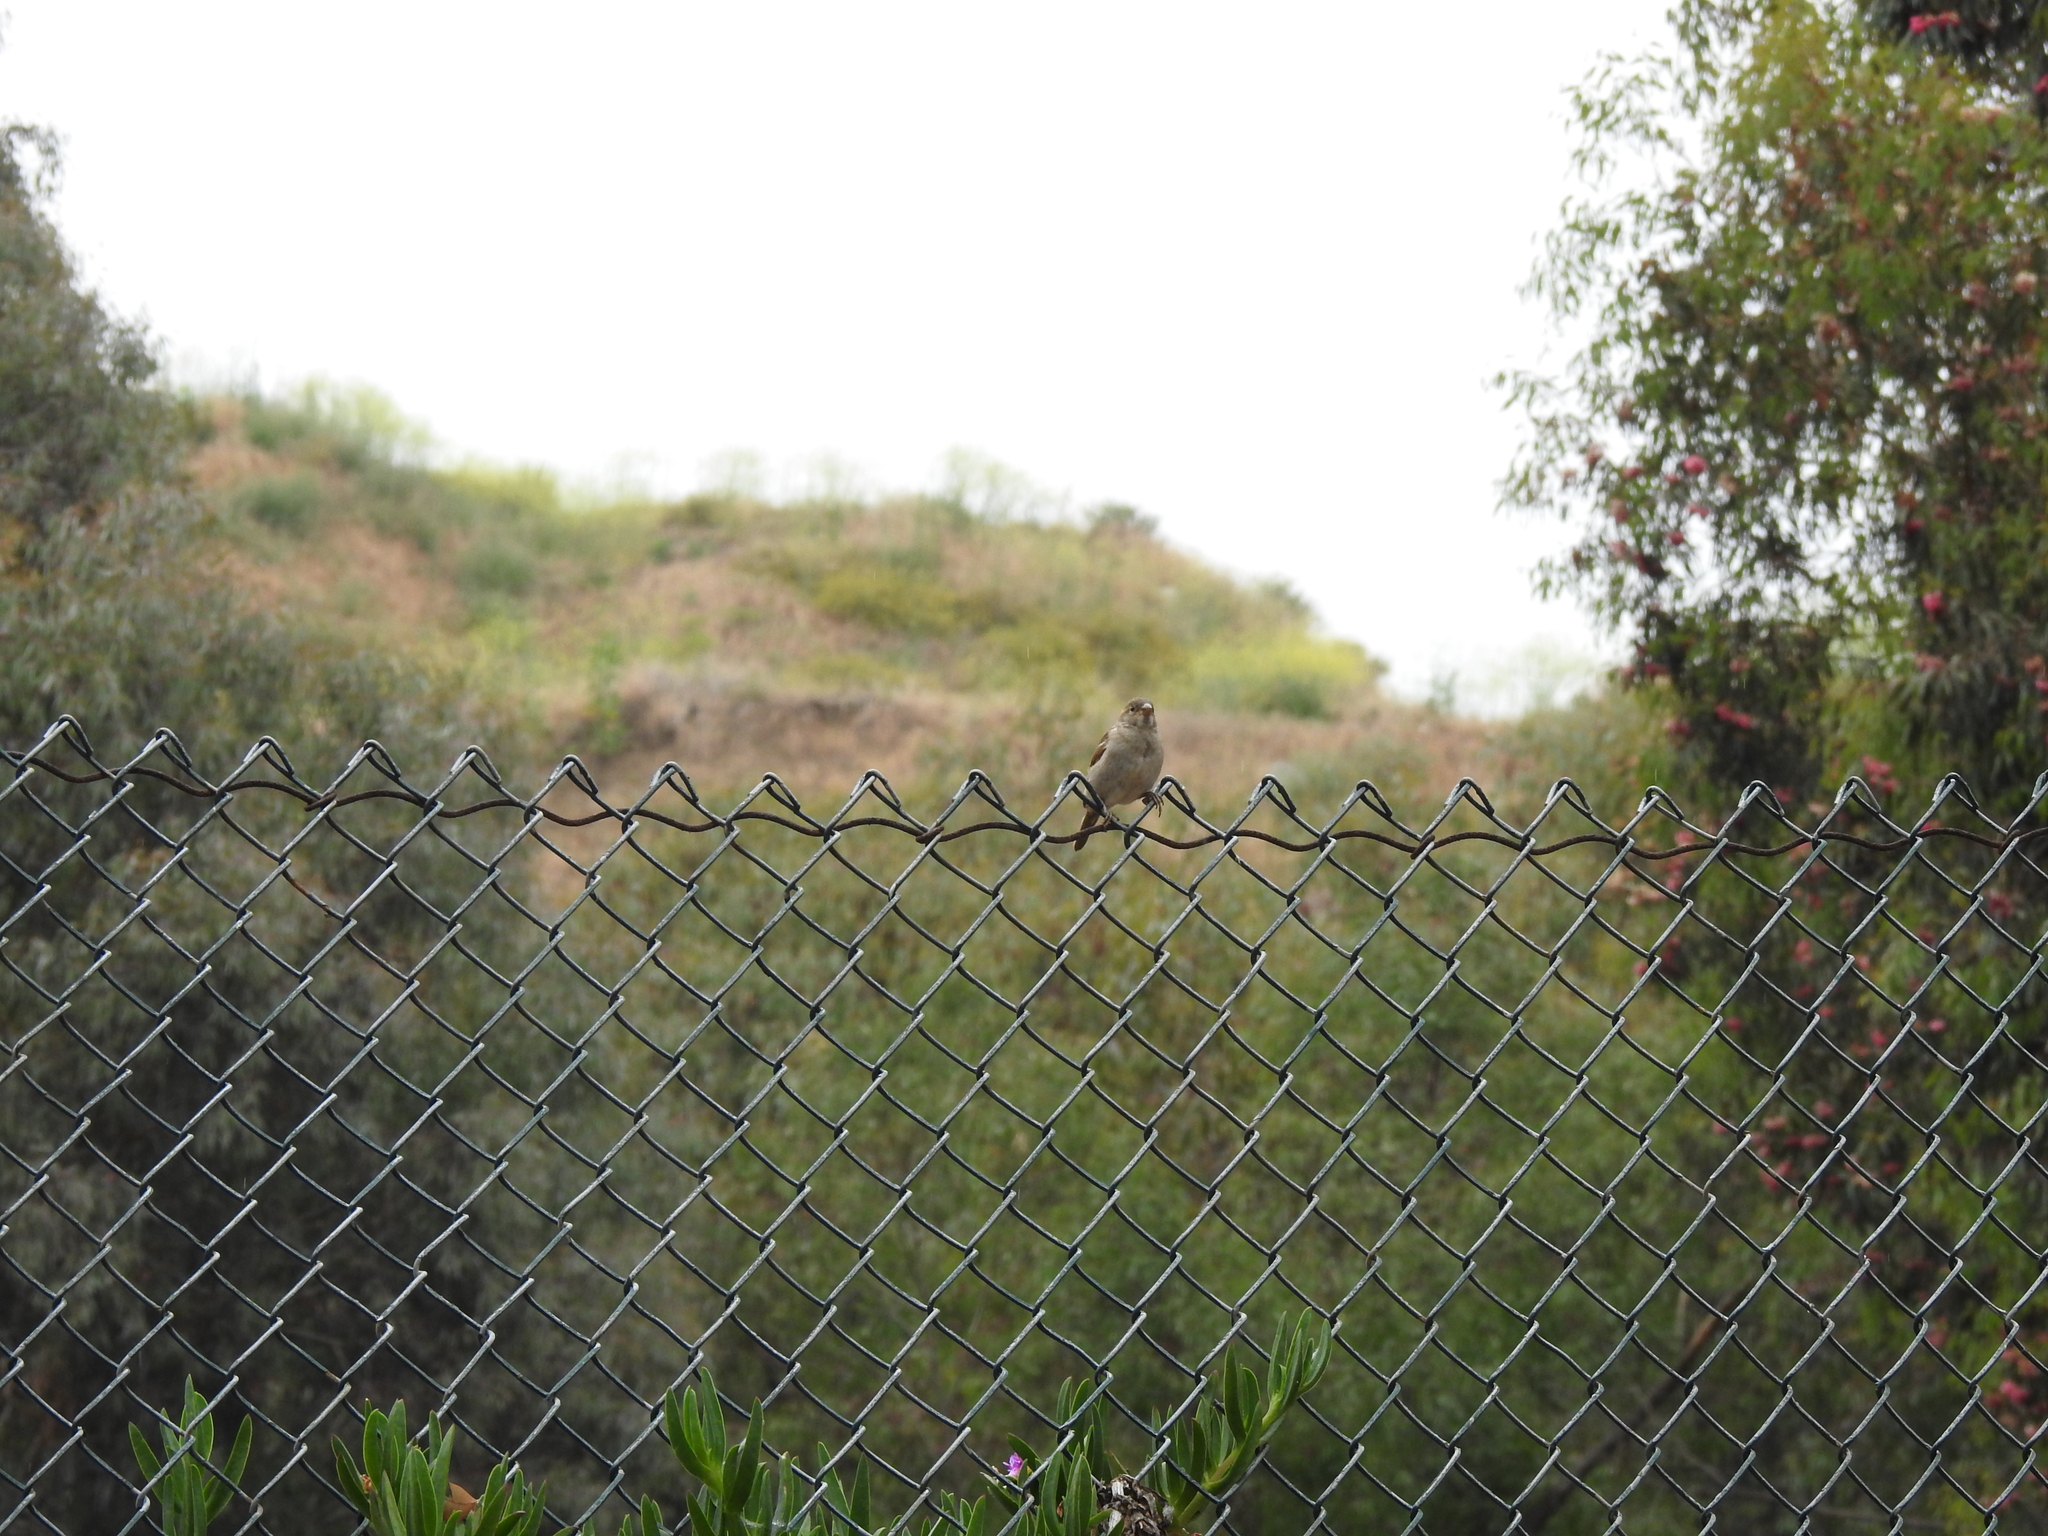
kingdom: Animalia
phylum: Chordata
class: Aves
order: Passeriformes
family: Passeridae
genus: Passer
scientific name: Passer domesticus
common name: House sparrow
